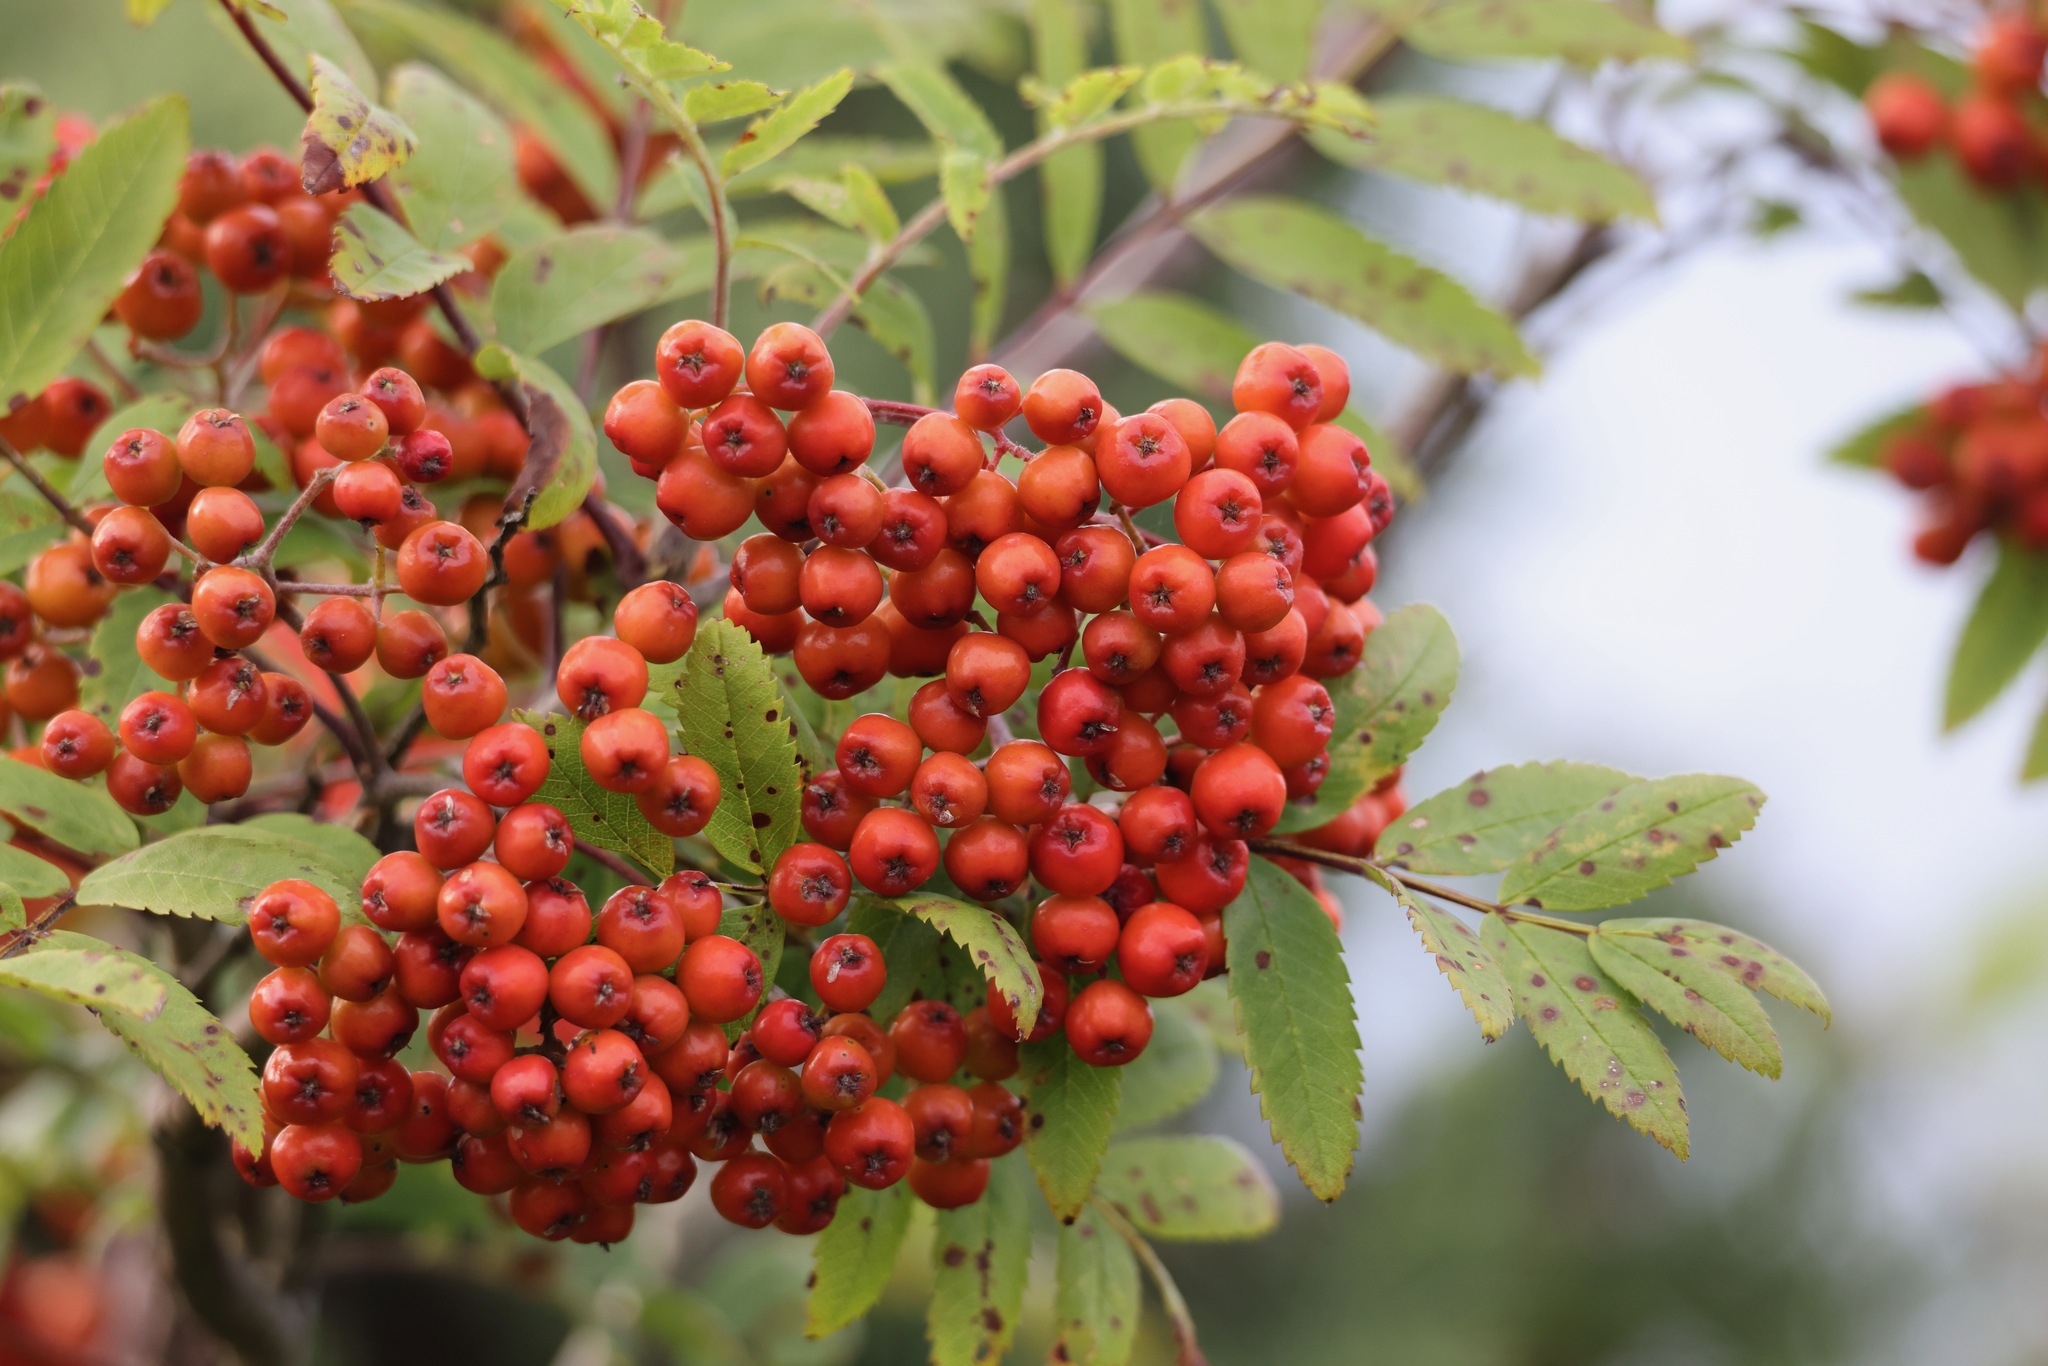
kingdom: Plantae
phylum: Tracheophyta
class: Magnoliopsida
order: Rosales
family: Rosaceae
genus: Sorbus
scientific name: Sorbus aucuparia
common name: Rowan
